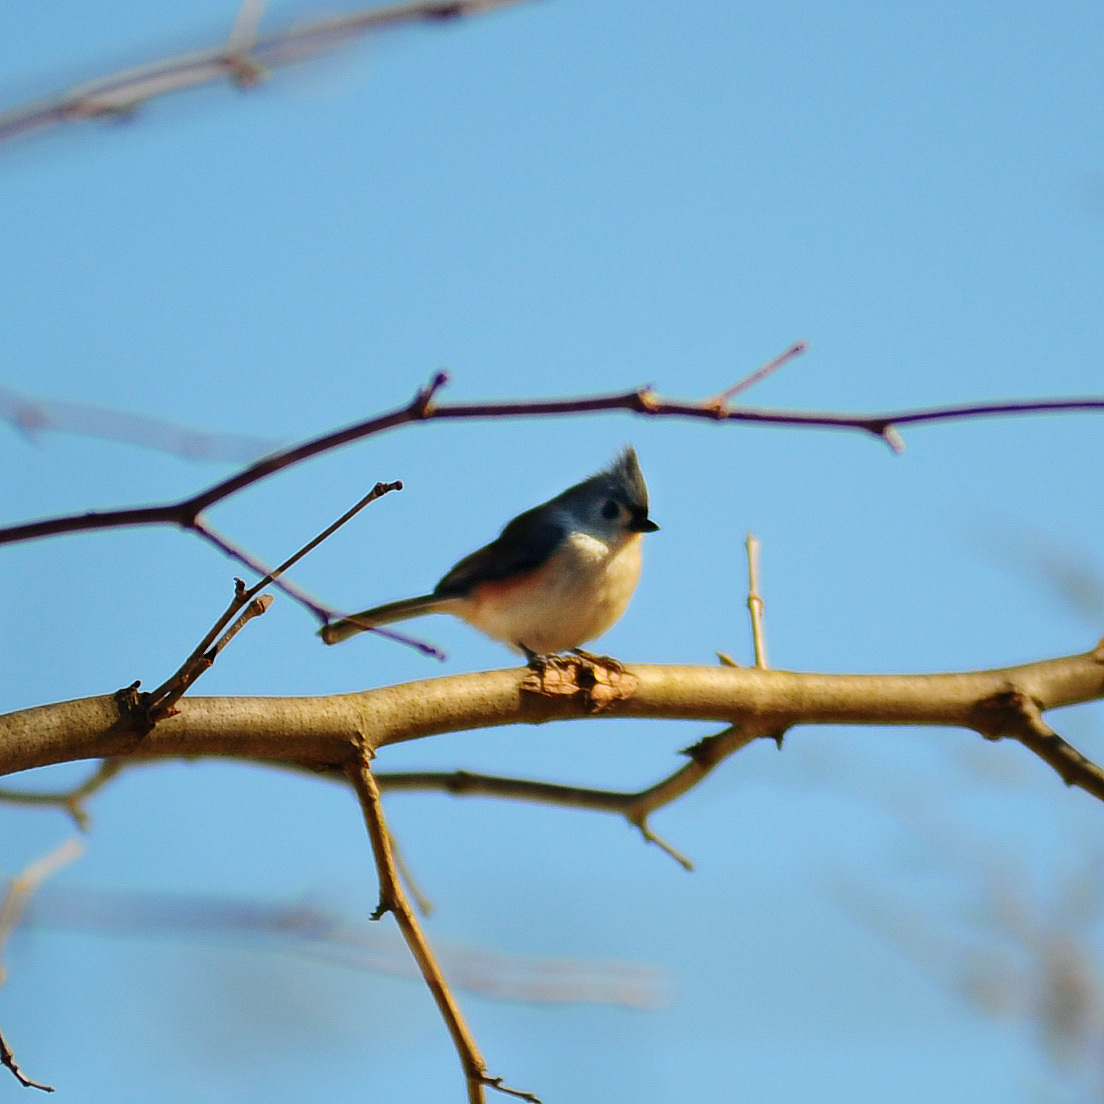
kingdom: Animalia
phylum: Chordata
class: Aves
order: Passeriformes
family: Paridae
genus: Baeolophus
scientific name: Baeolophus bicolor
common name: Tufted titmouse
